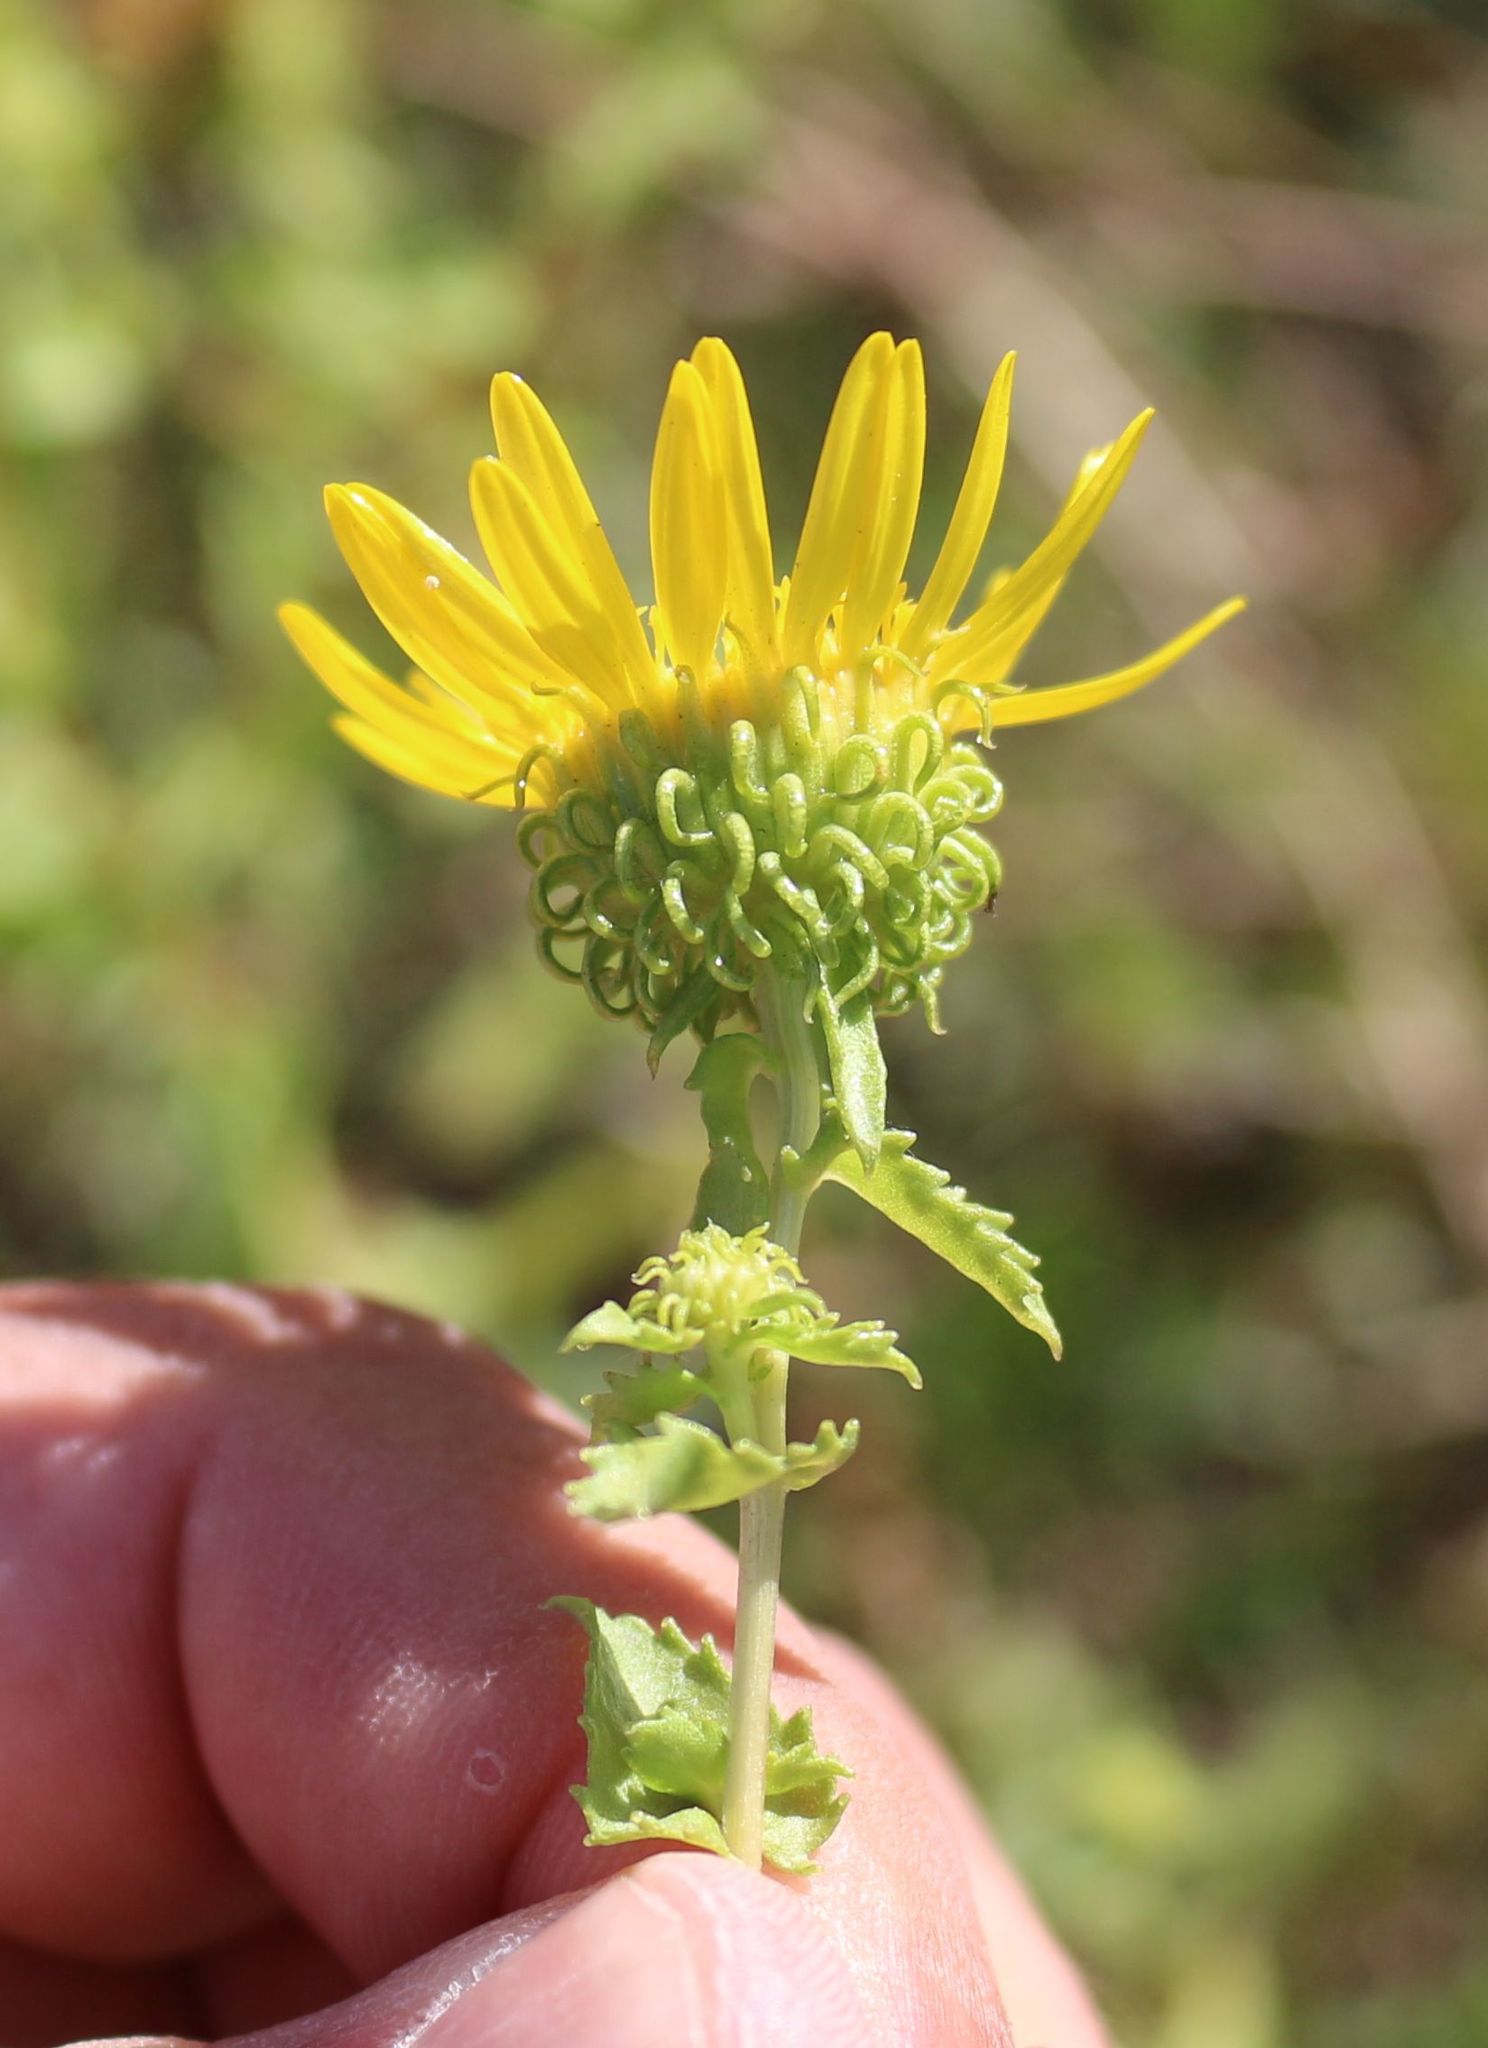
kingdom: Plantae
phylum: Tracheophyta
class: Magnoliopsida
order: Asterales
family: Asteraceae
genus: Grindelia
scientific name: Grindelia squarrosa
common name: Curly-cup gumweed
